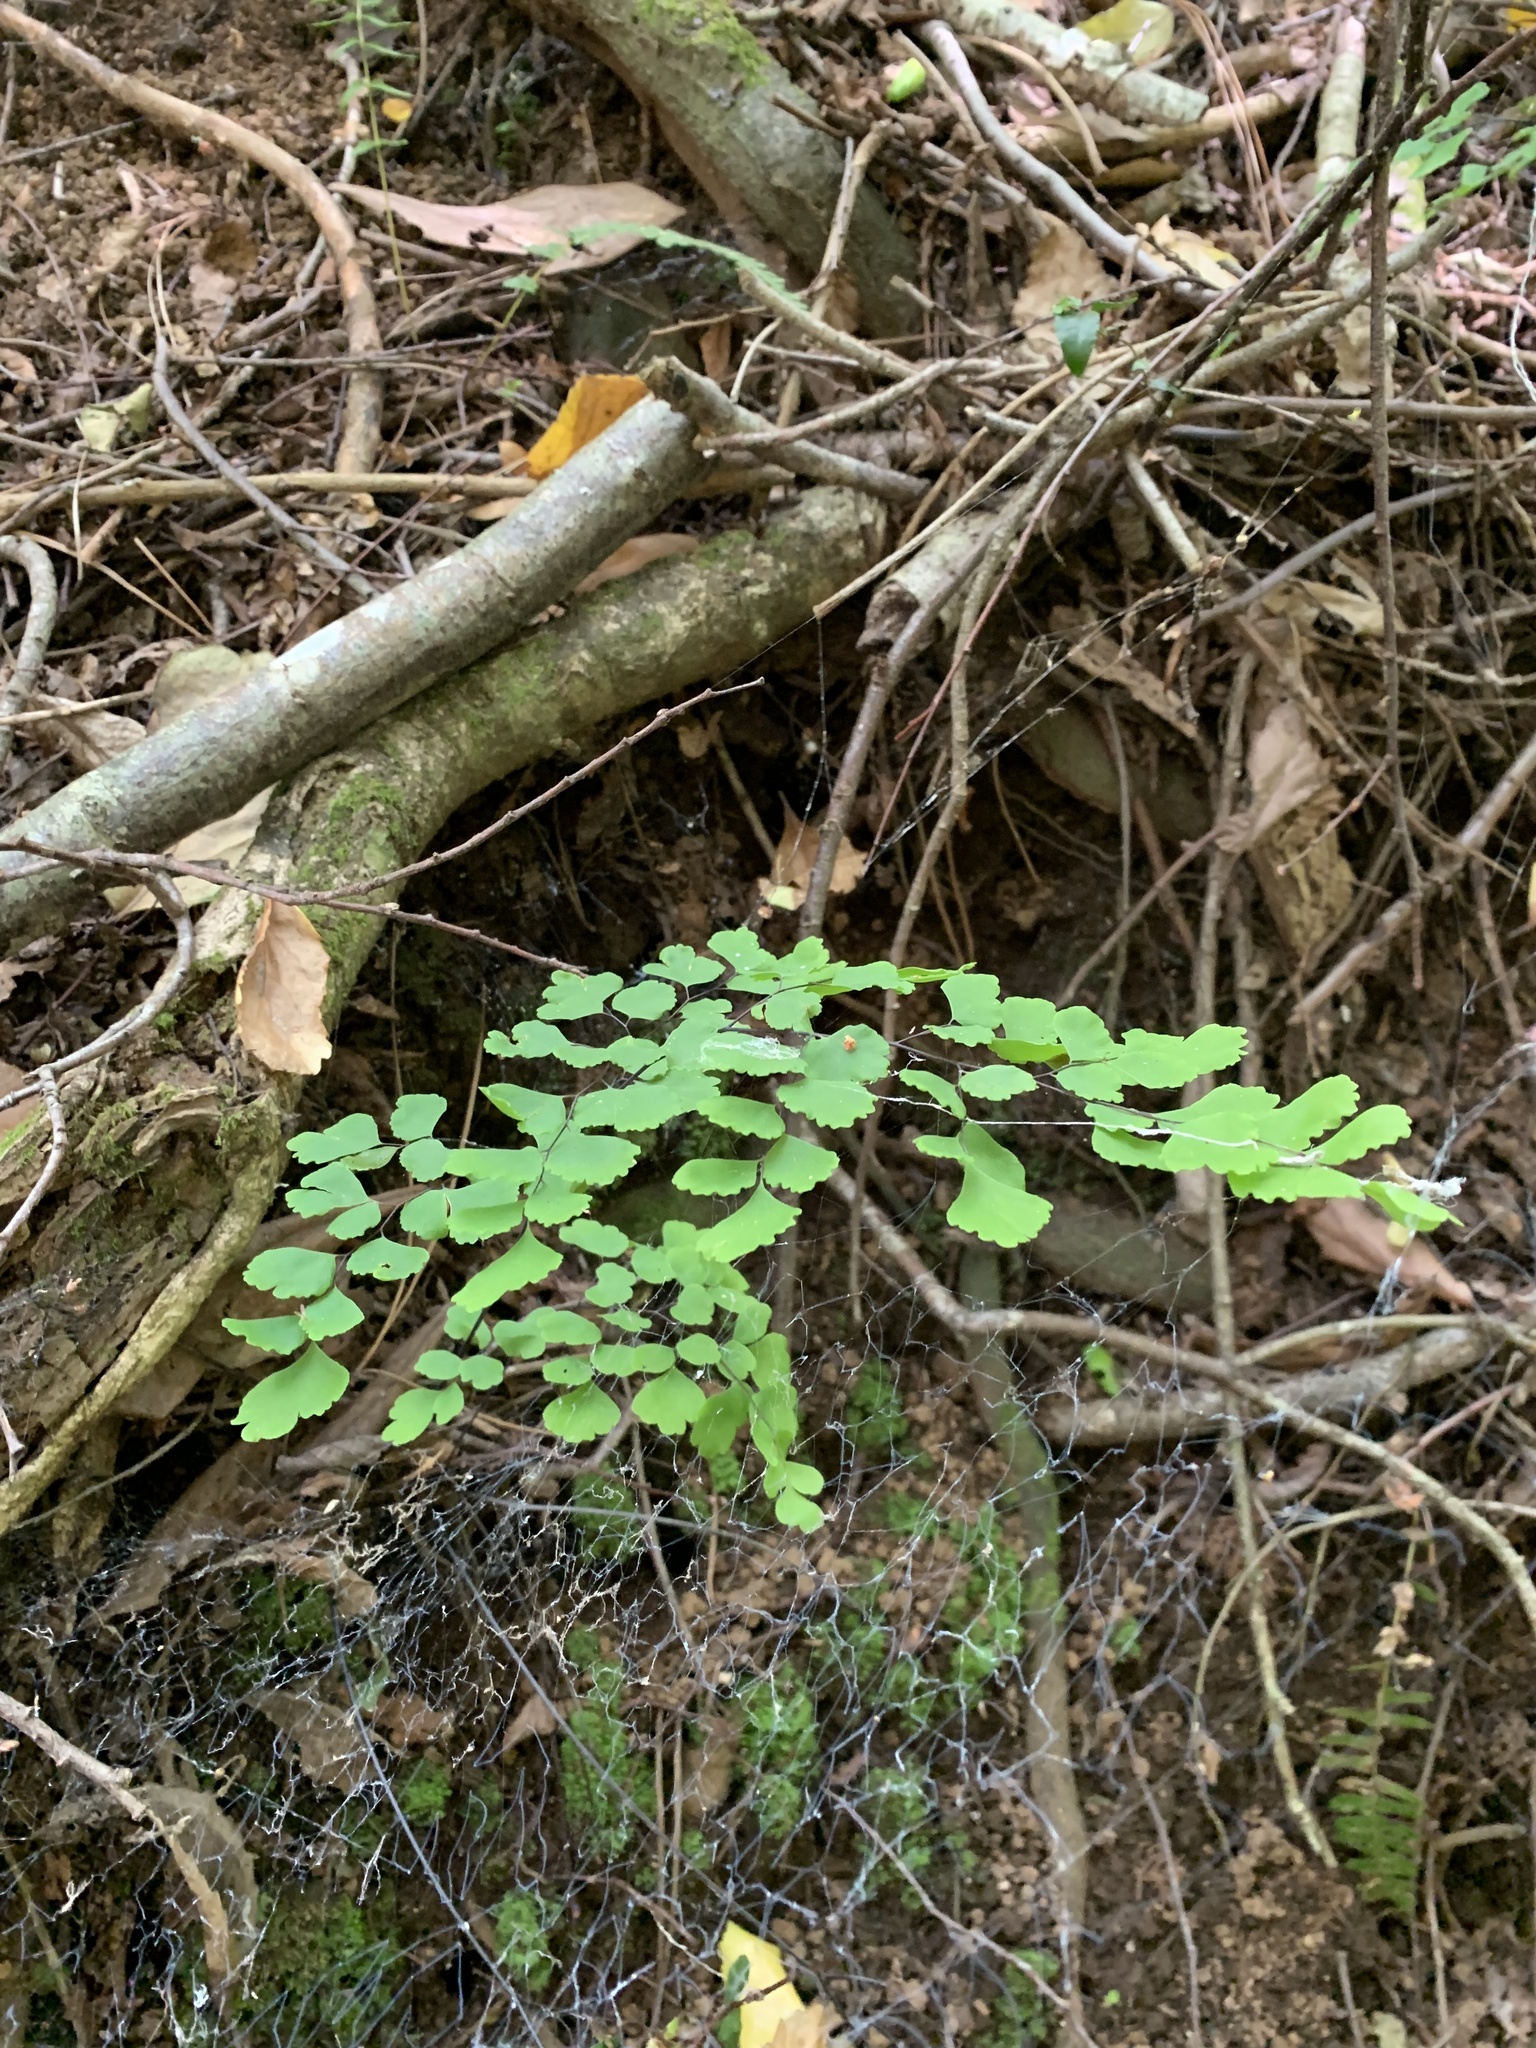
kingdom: Plantae
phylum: Tracheophyta
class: Polypodiopsida
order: Polypodiales
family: Pteridaceae
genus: Adiantum
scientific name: Adiantum chilense
